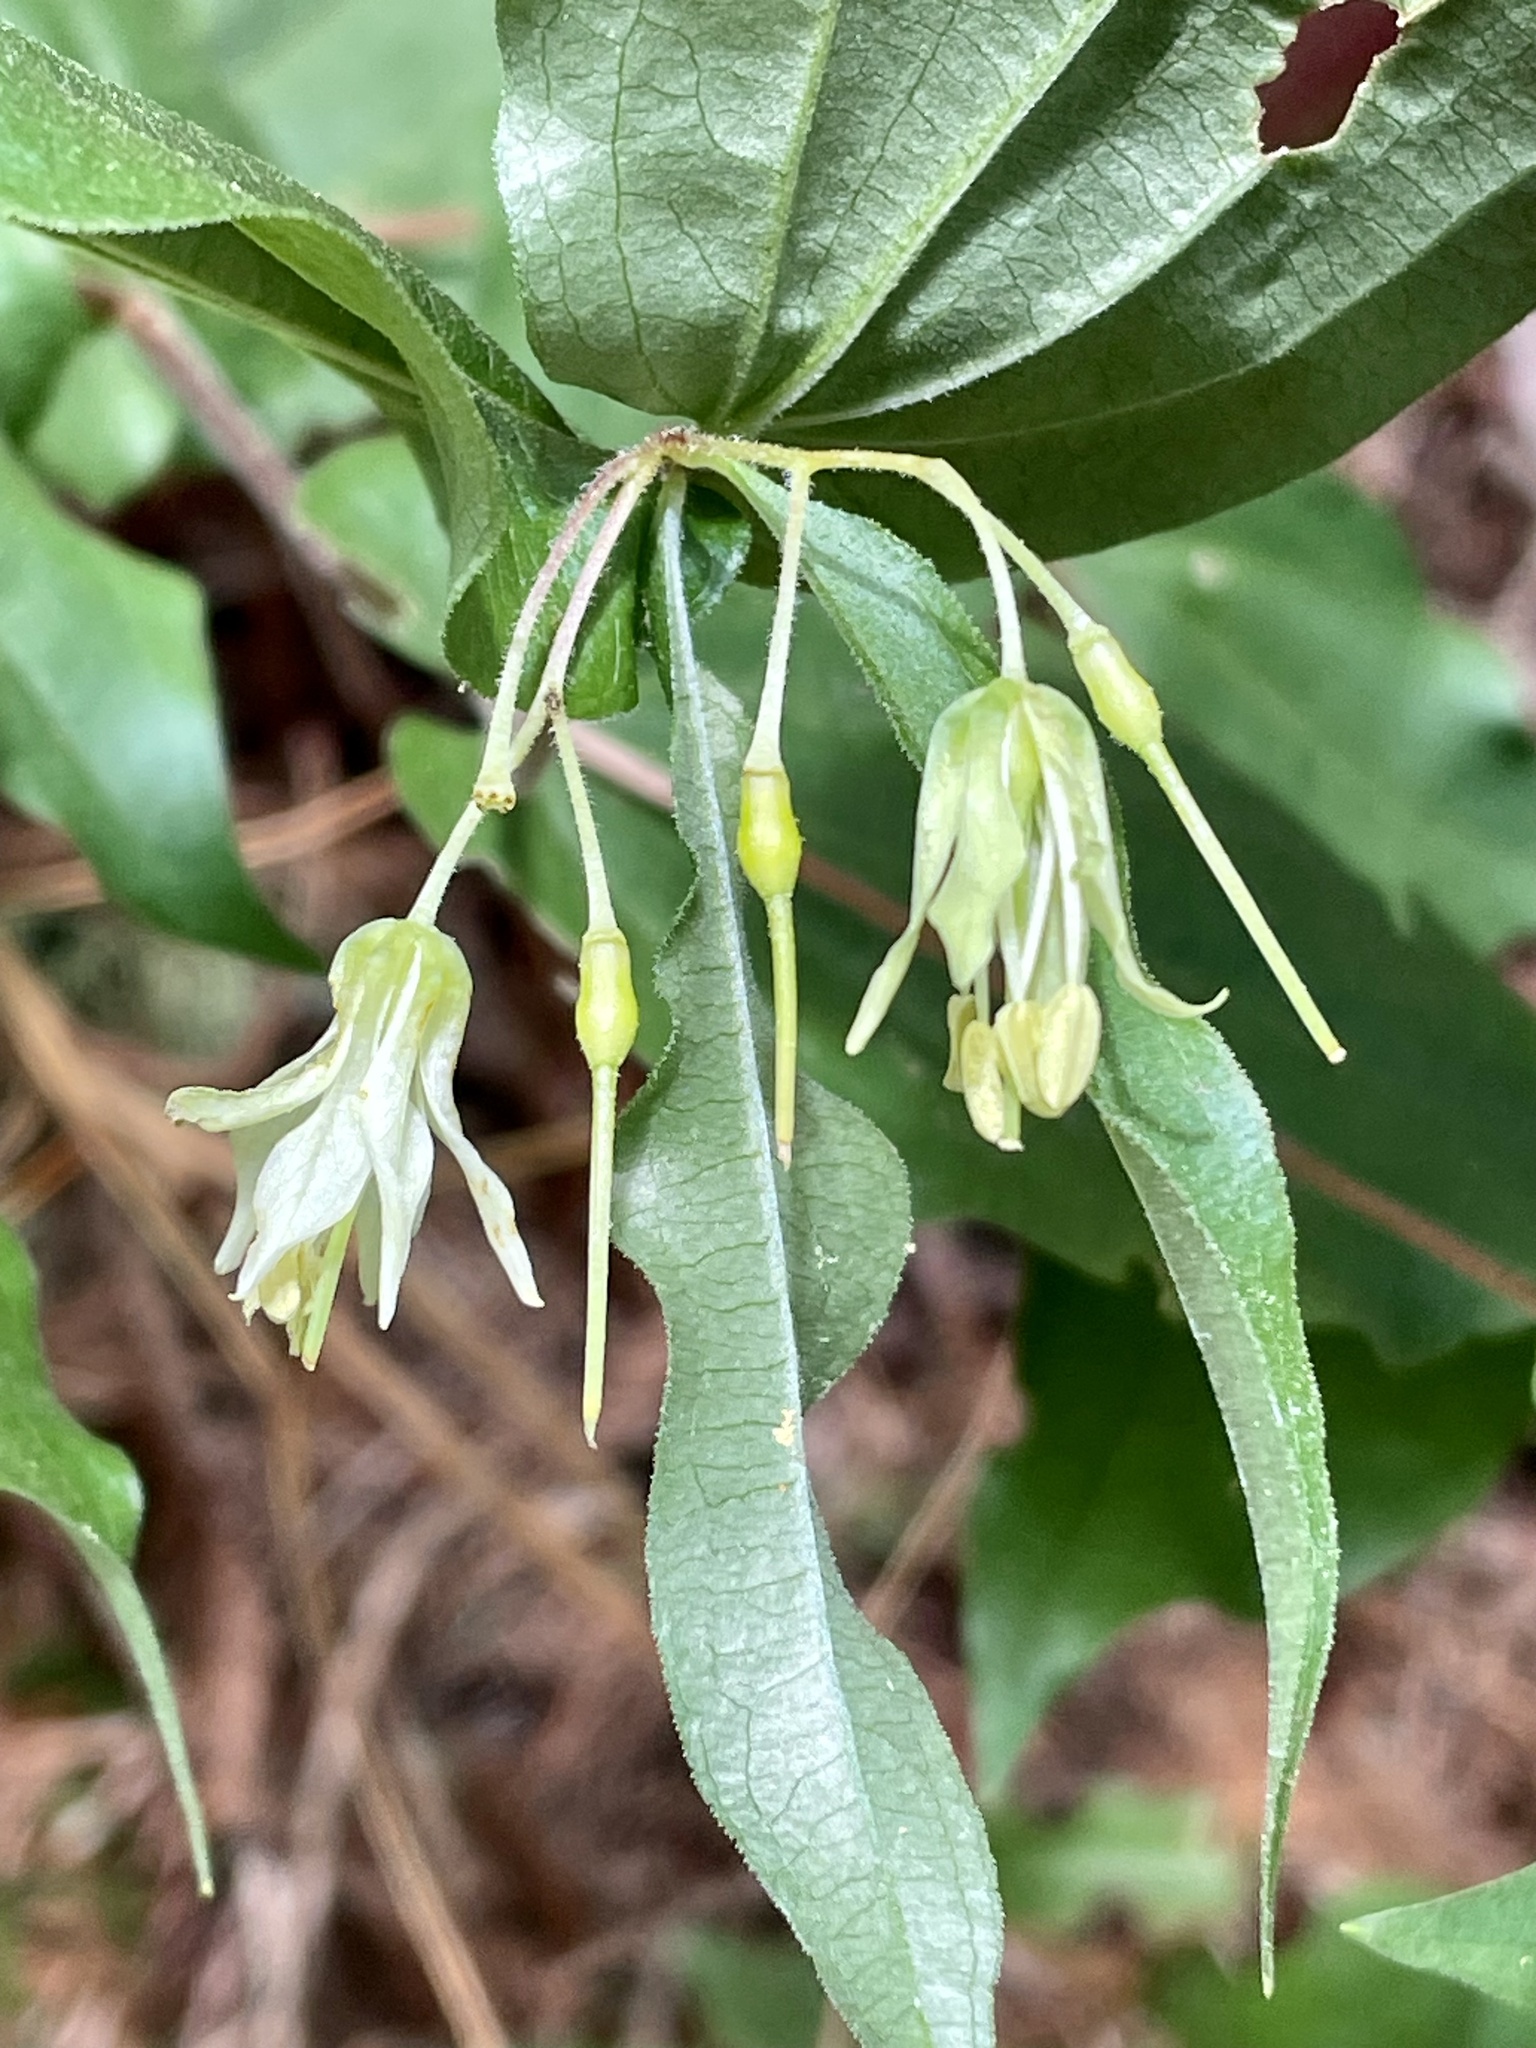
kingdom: Plantae
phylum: Tracheophyta
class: Liliopsida
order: Liliales
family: Liliaceae
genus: Prosartes
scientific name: Prosartes hookeri
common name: Fairy-bells
